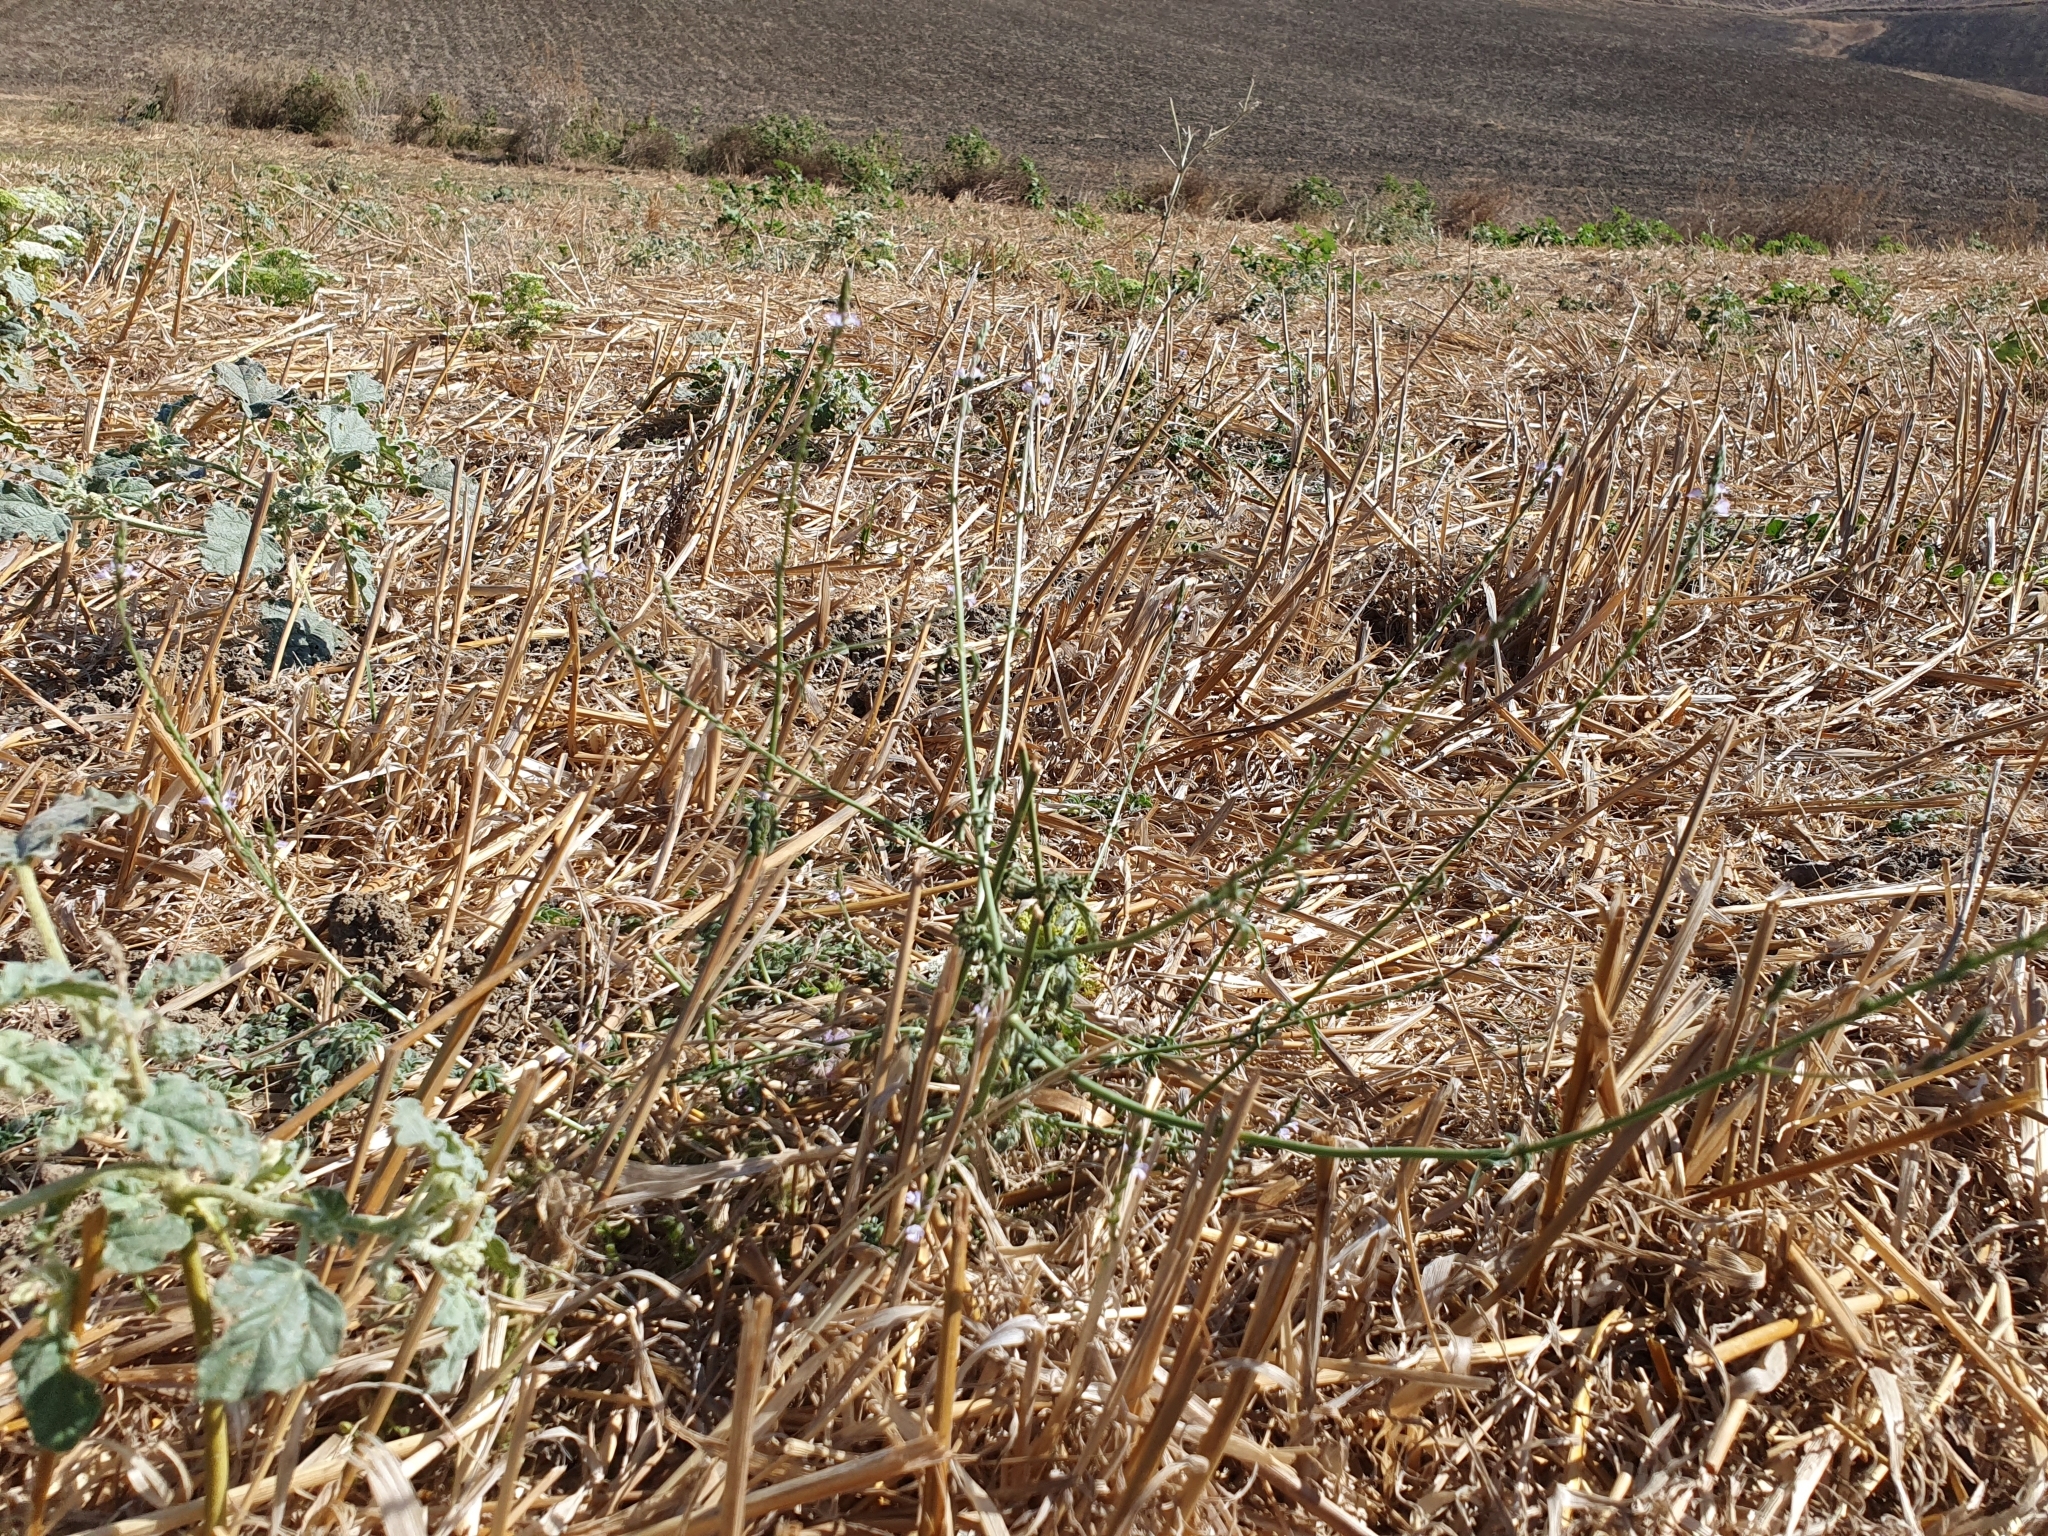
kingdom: Plantae
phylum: Tracheophyta
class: Magnoliopsida
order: Lamiales
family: Verbenaceae
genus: Verbena
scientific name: Verbena officinalis
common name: Vervain
